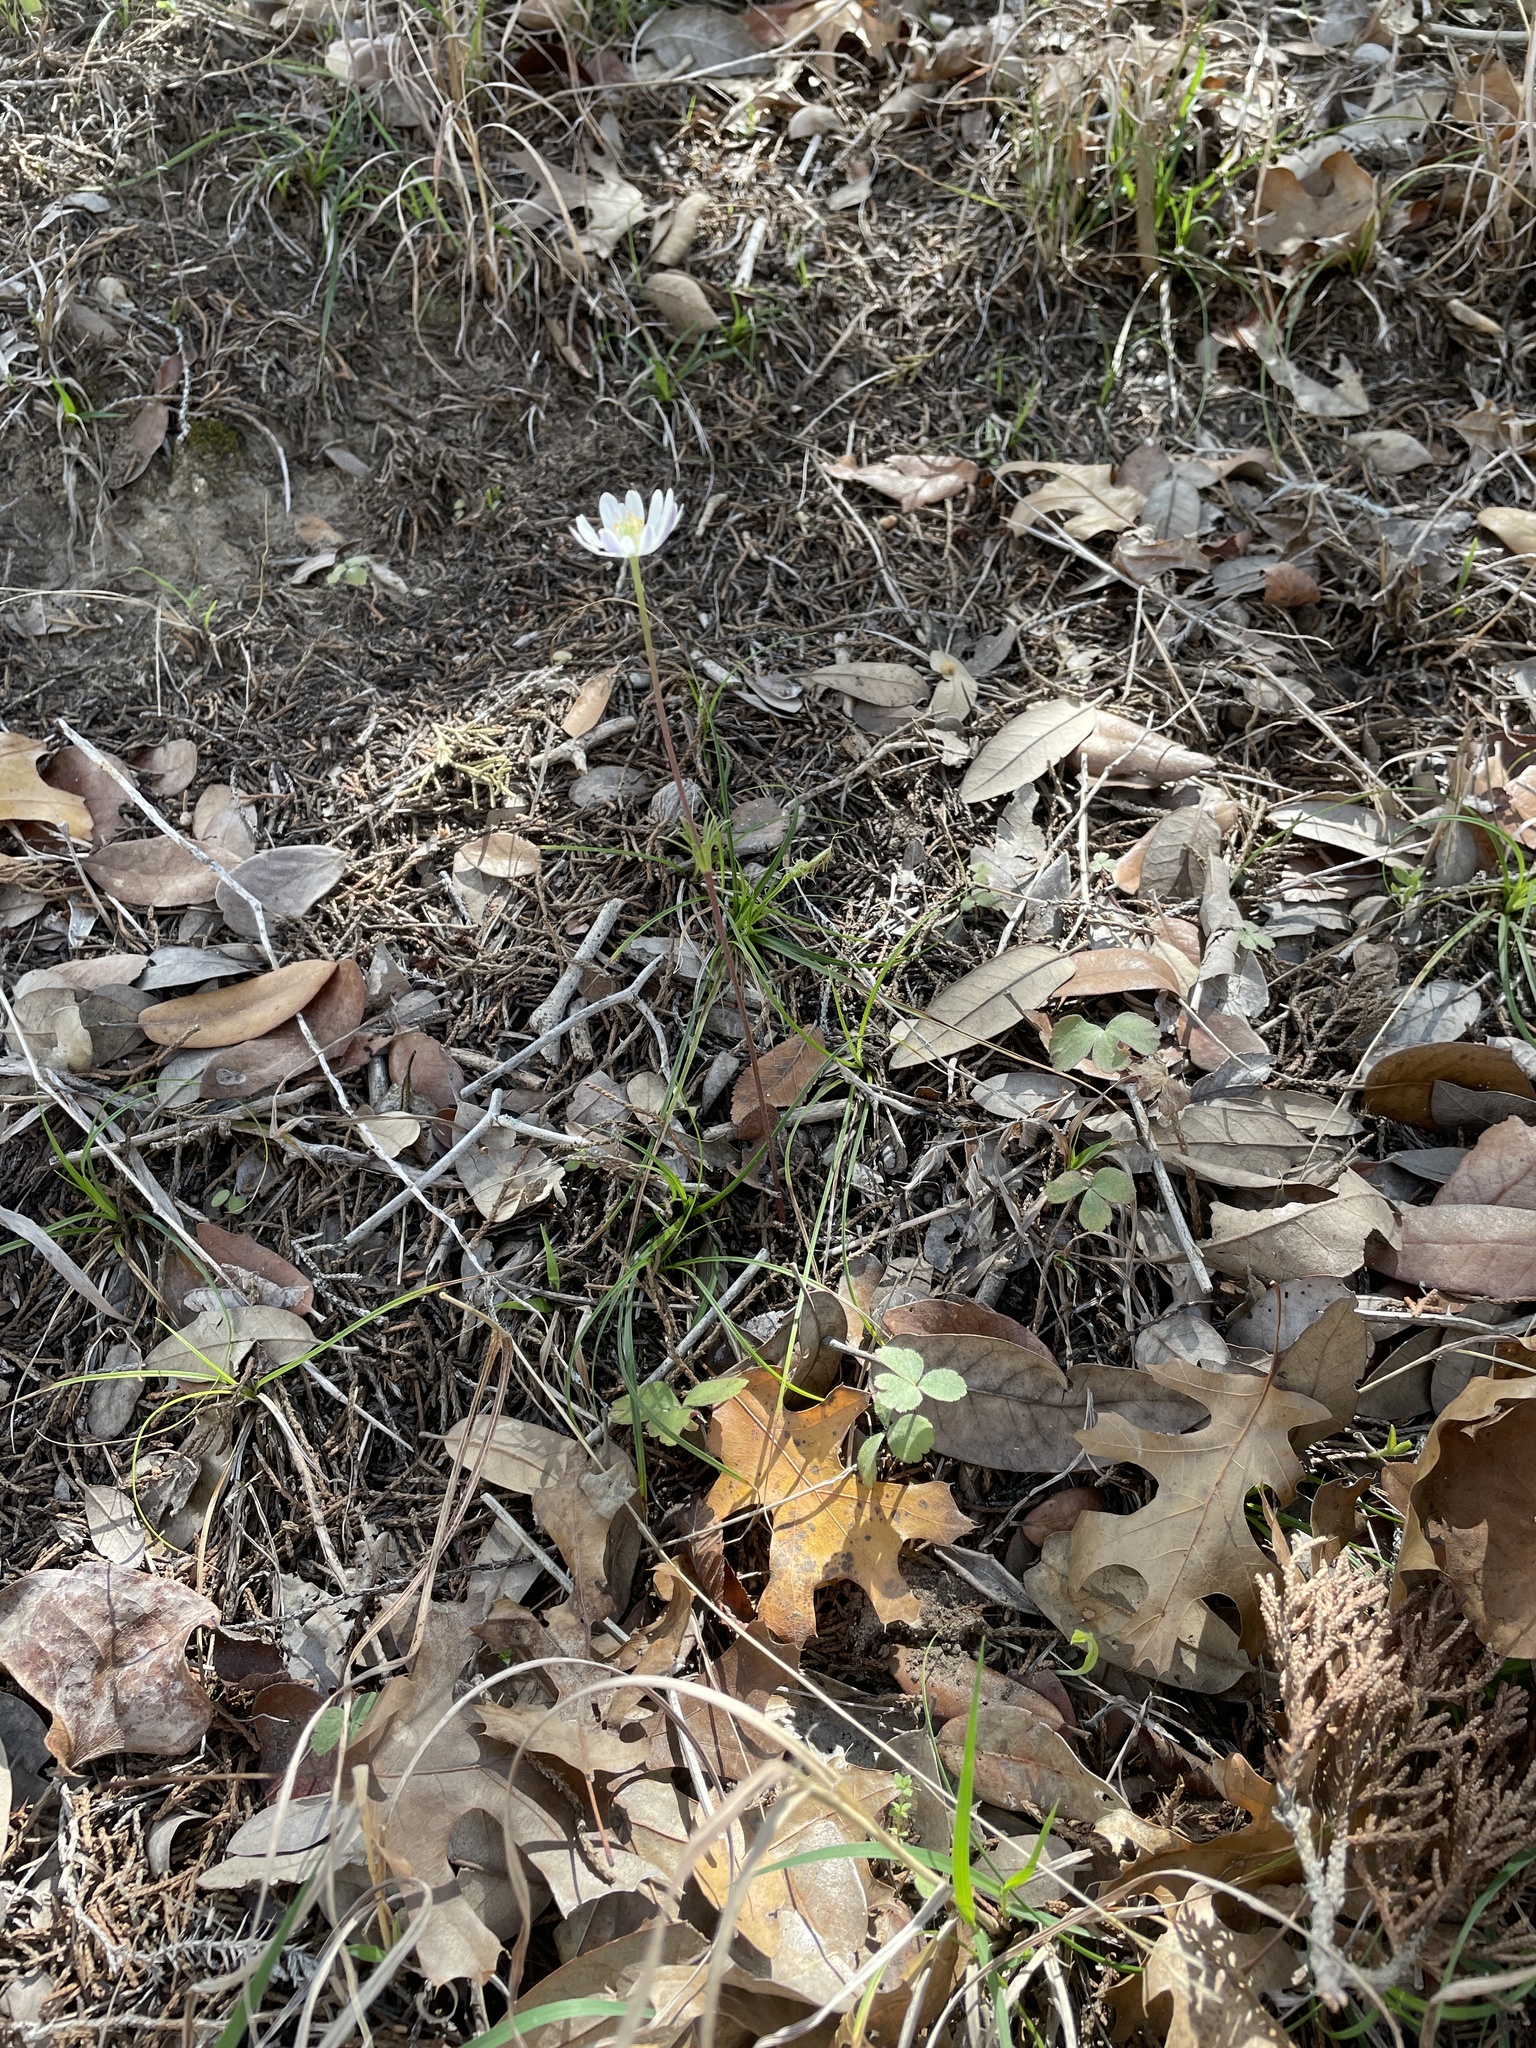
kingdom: Plantae
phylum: Tracheophyta
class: Magnoliopsida
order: Ranunculales
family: Ranunculaceae
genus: Anemone
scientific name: Anemone berlandieri
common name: Ten-petal anemone
